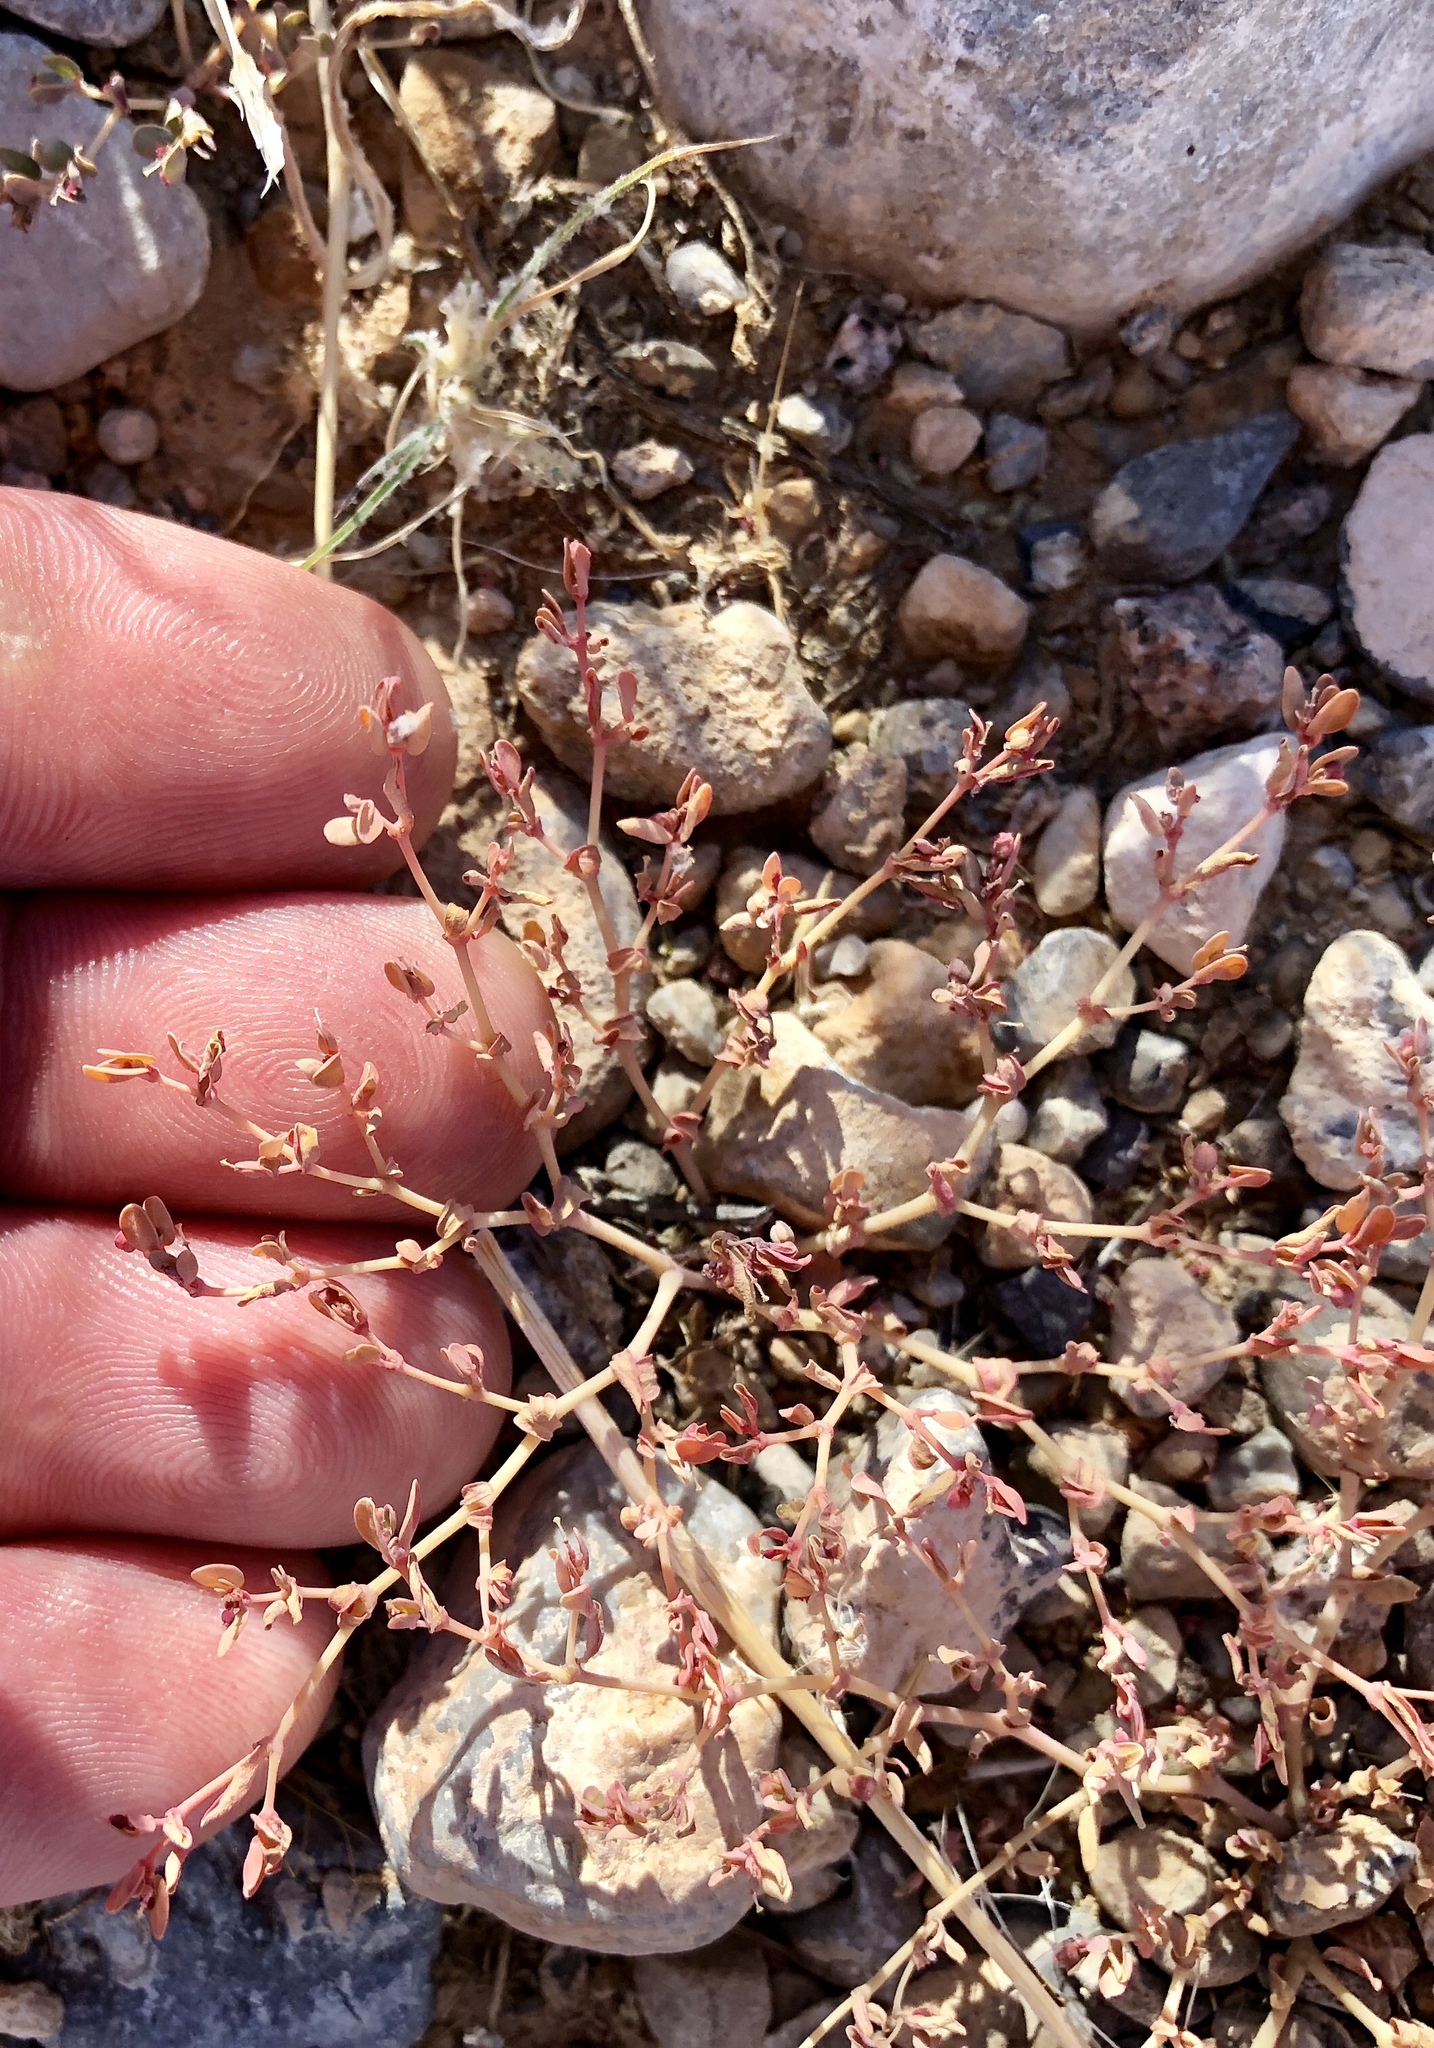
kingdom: Plantae
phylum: Tracheophyta
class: Magnoliopsida
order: Malpighiales
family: Euphorbiaceae
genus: Euphorbia
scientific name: Euphorbia micromera
